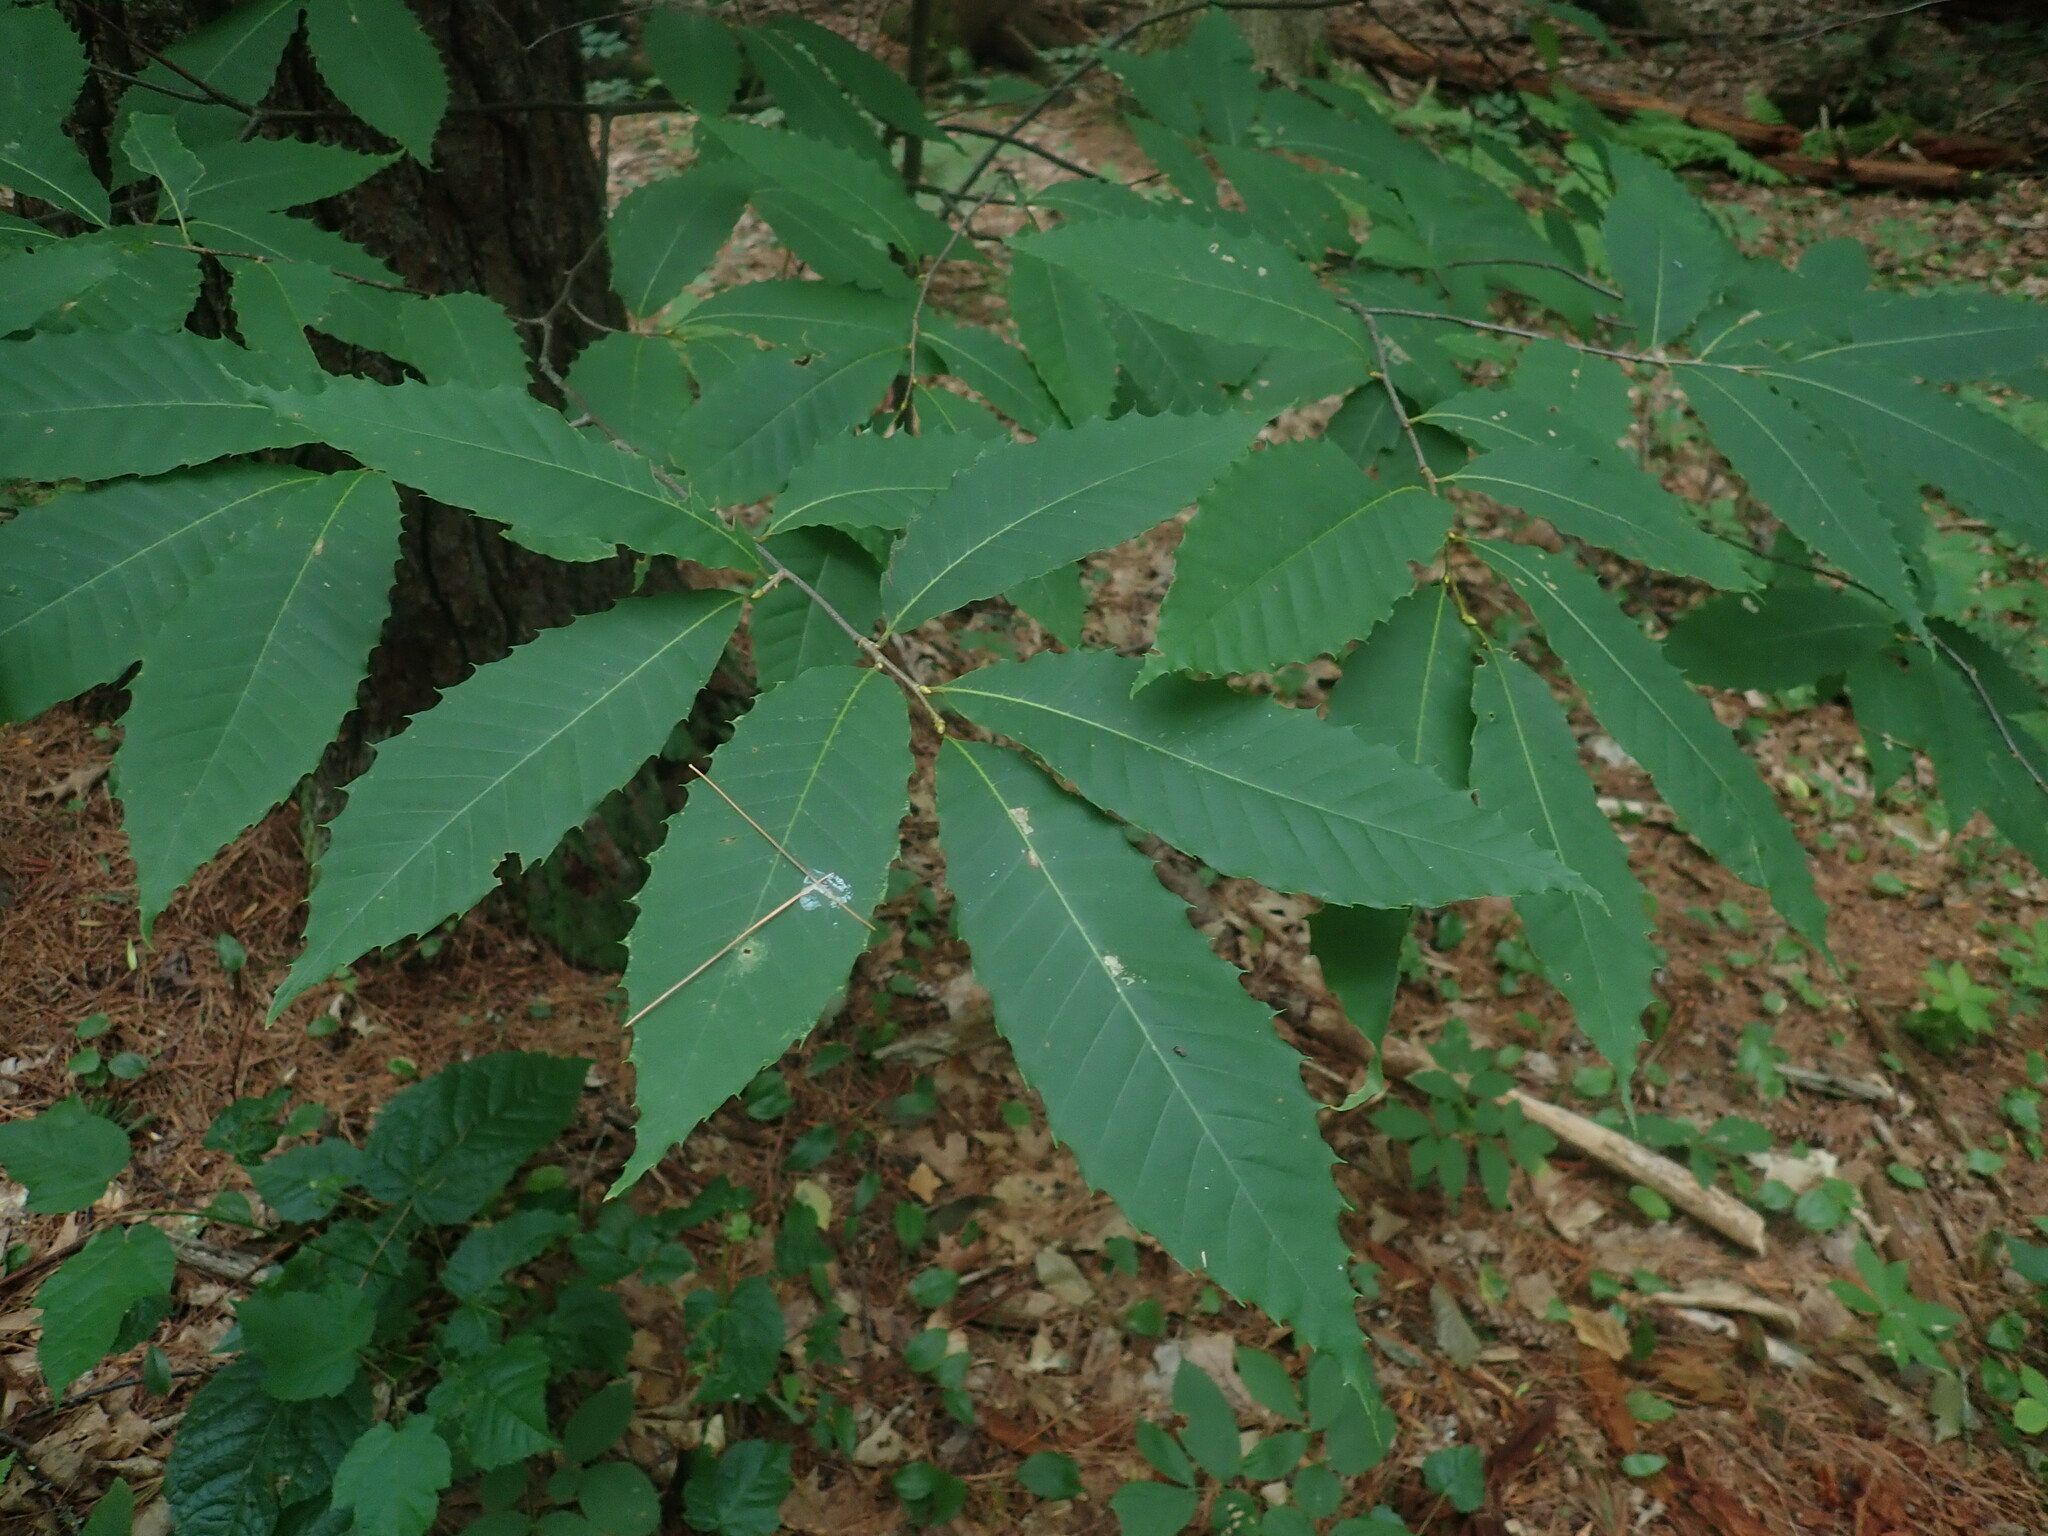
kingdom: Plantae
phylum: Tracheophyta
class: Magnoliopsida
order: Fagales
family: Fagaceae
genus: Castanea
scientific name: Castanea dentata
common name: American chestnut
